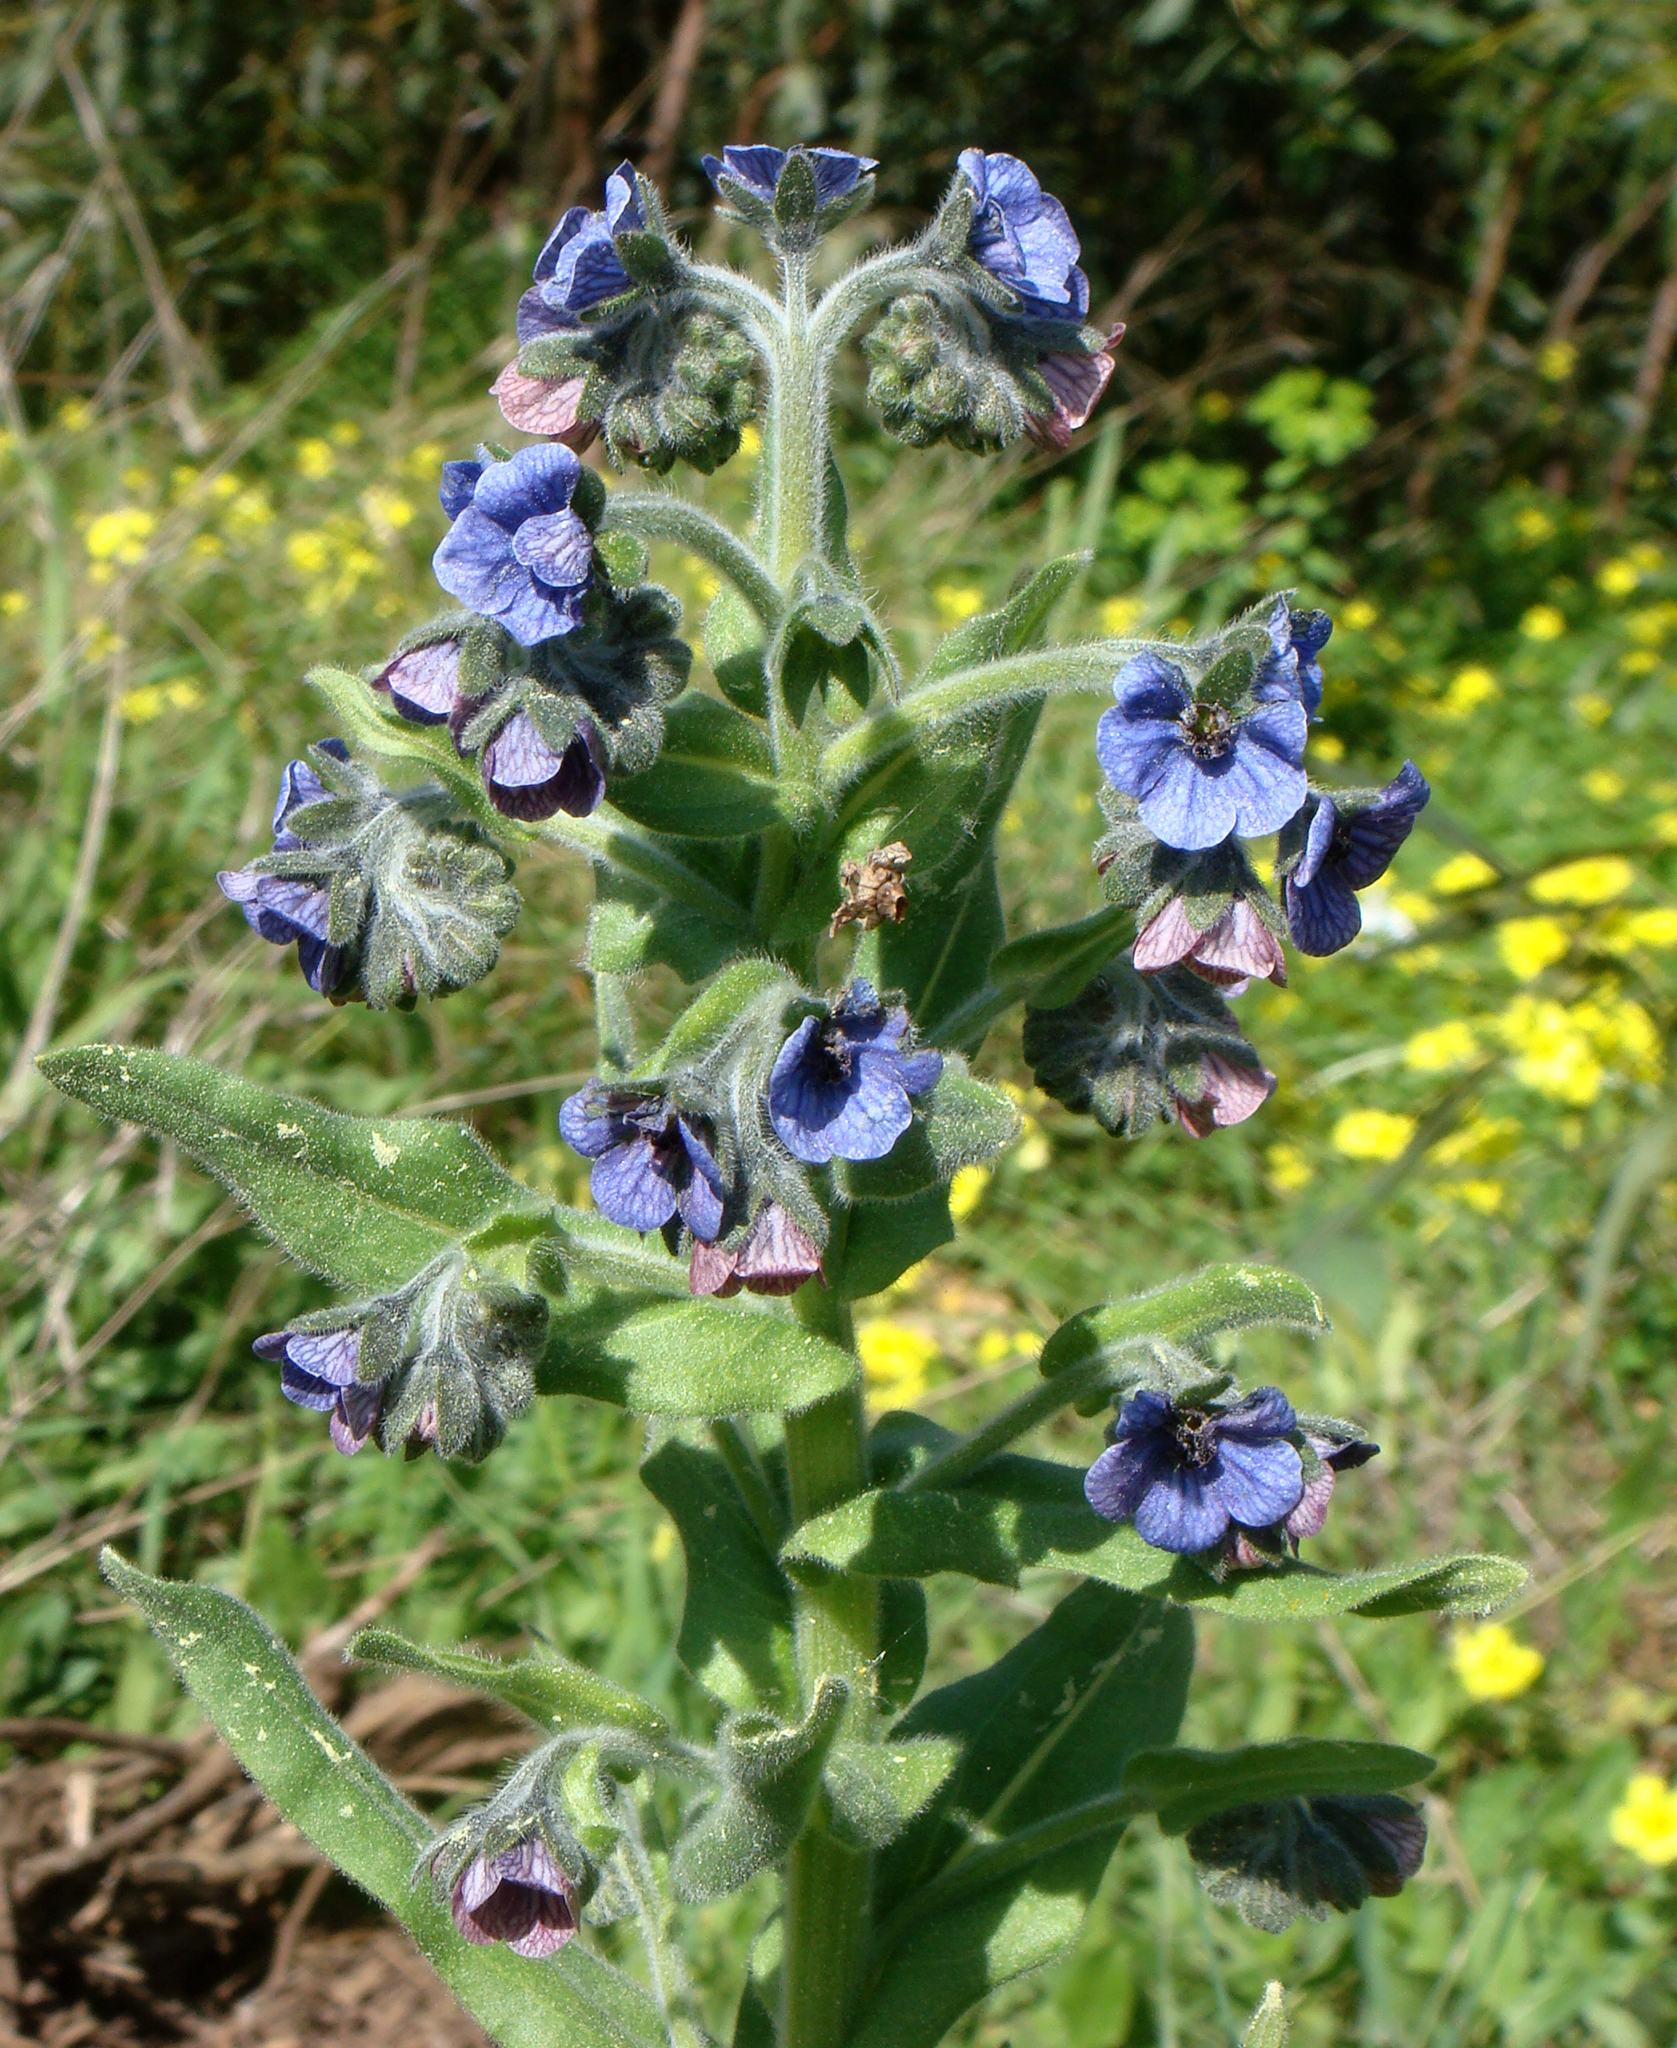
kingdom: Plantae
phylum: Tracheophyta
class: Magnoliopsida
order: Boraginales
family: Boraginaceae
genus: Cynoglossum
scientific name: Cynoglossum creticum
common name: Blue hound's tongue
